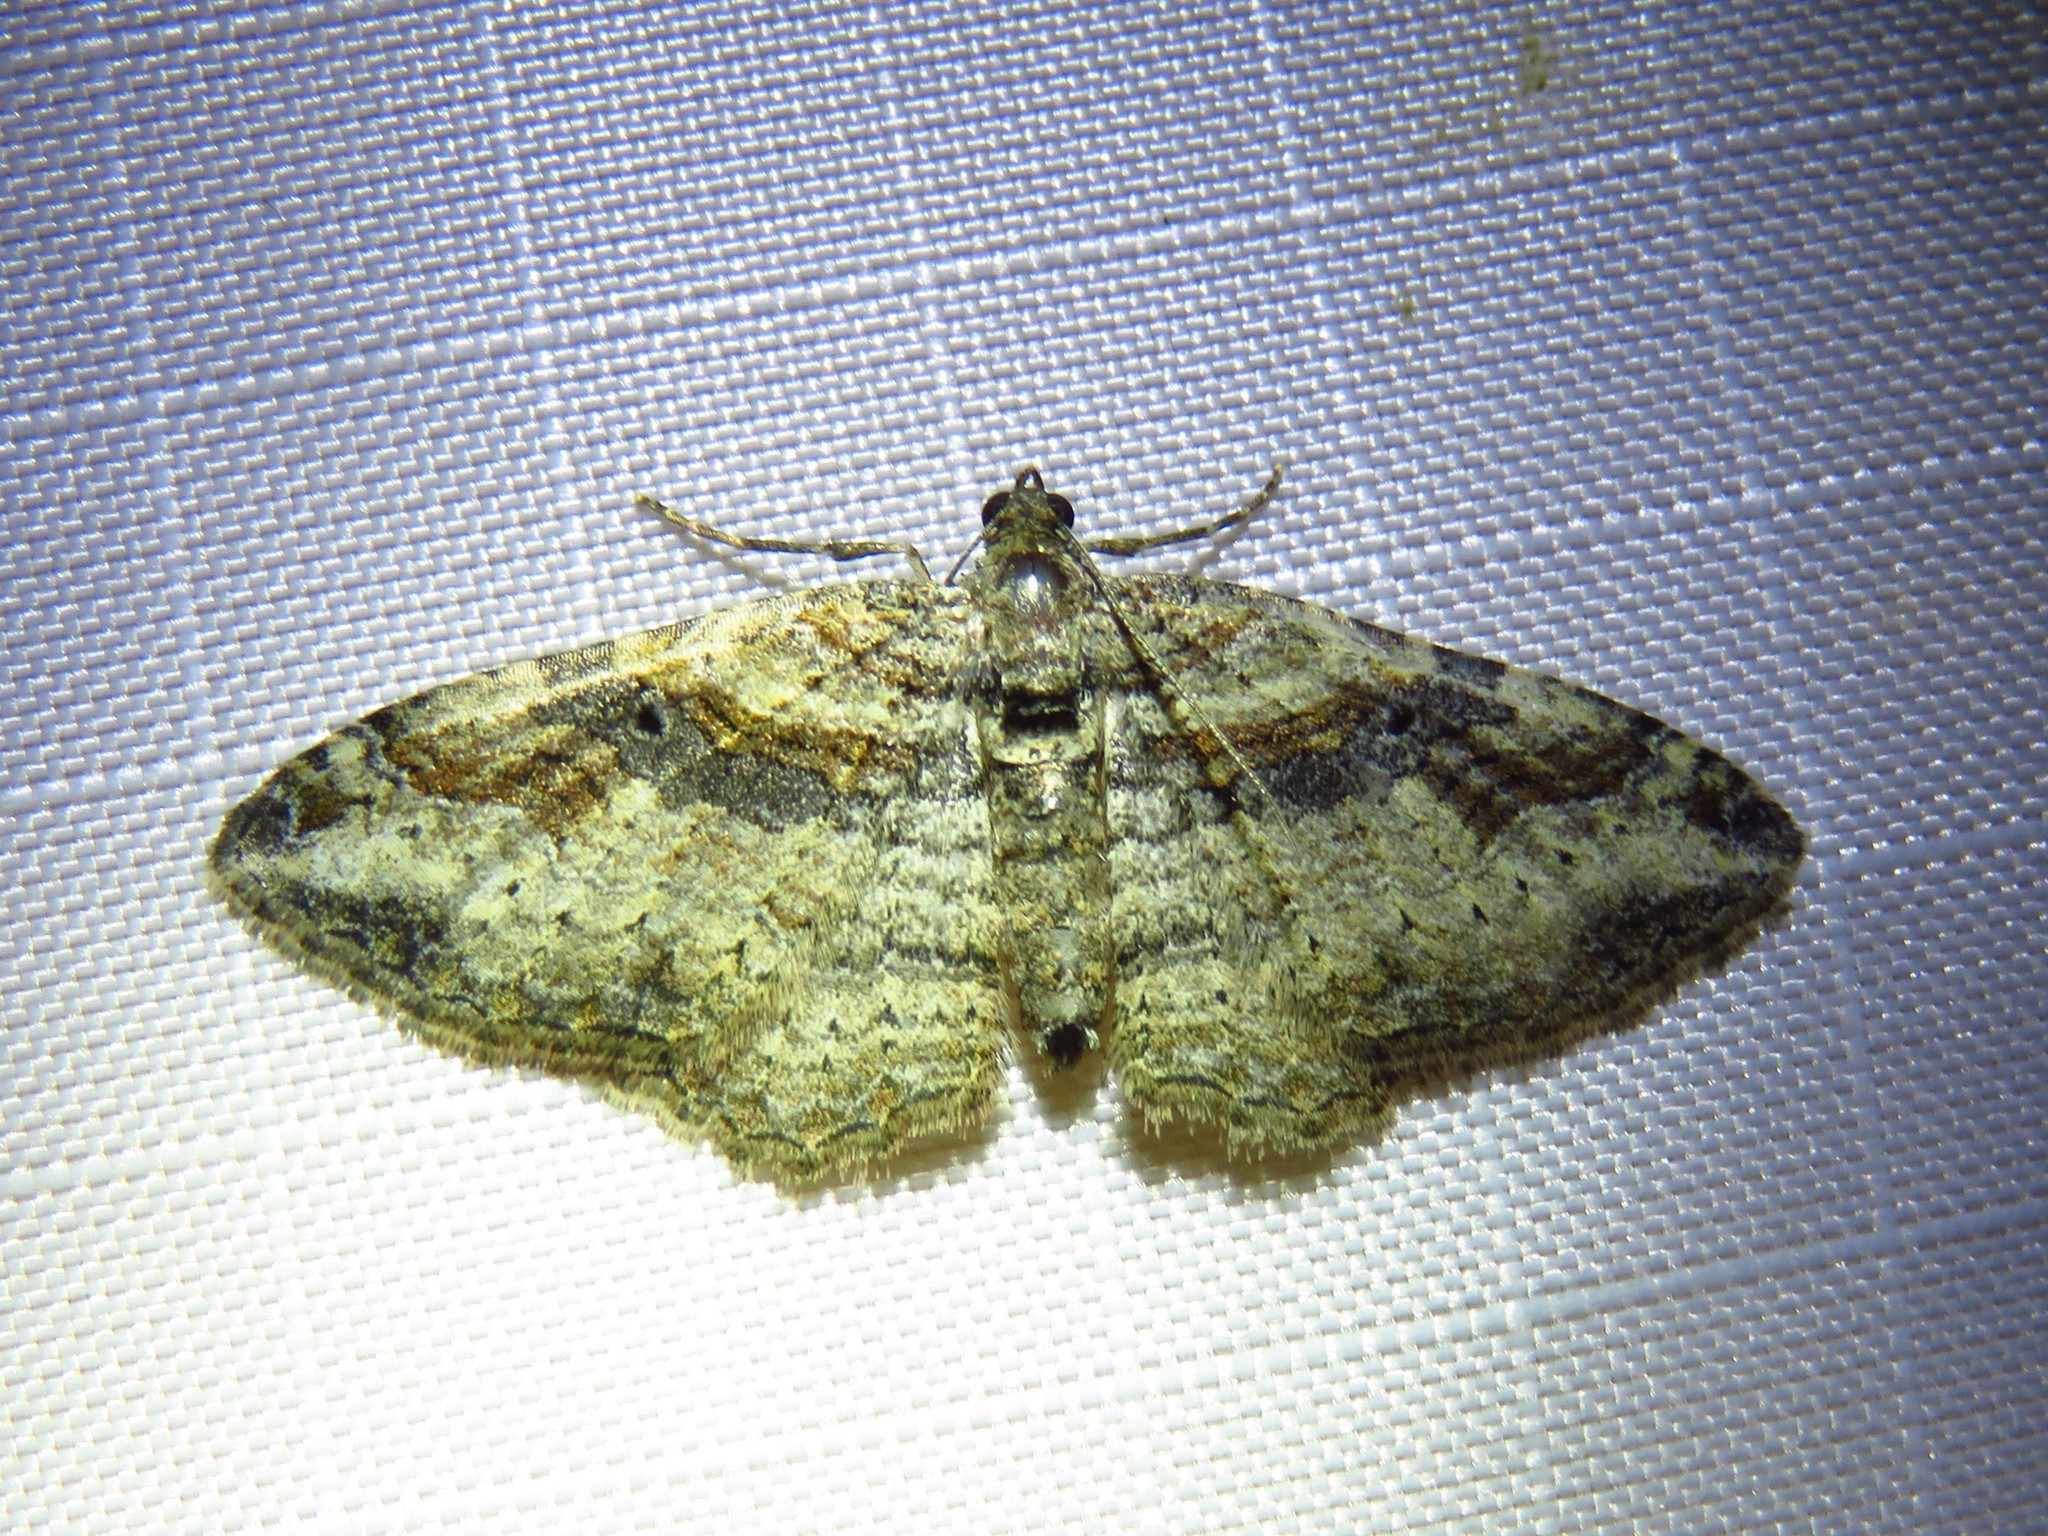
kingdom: Animalia
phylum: Arthropoda
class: Insecta
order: Lepidoptera
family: Geometridae
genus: Costaconvexa
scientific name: Costaconvexa centrostrigaria
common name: Bent-line carpet
